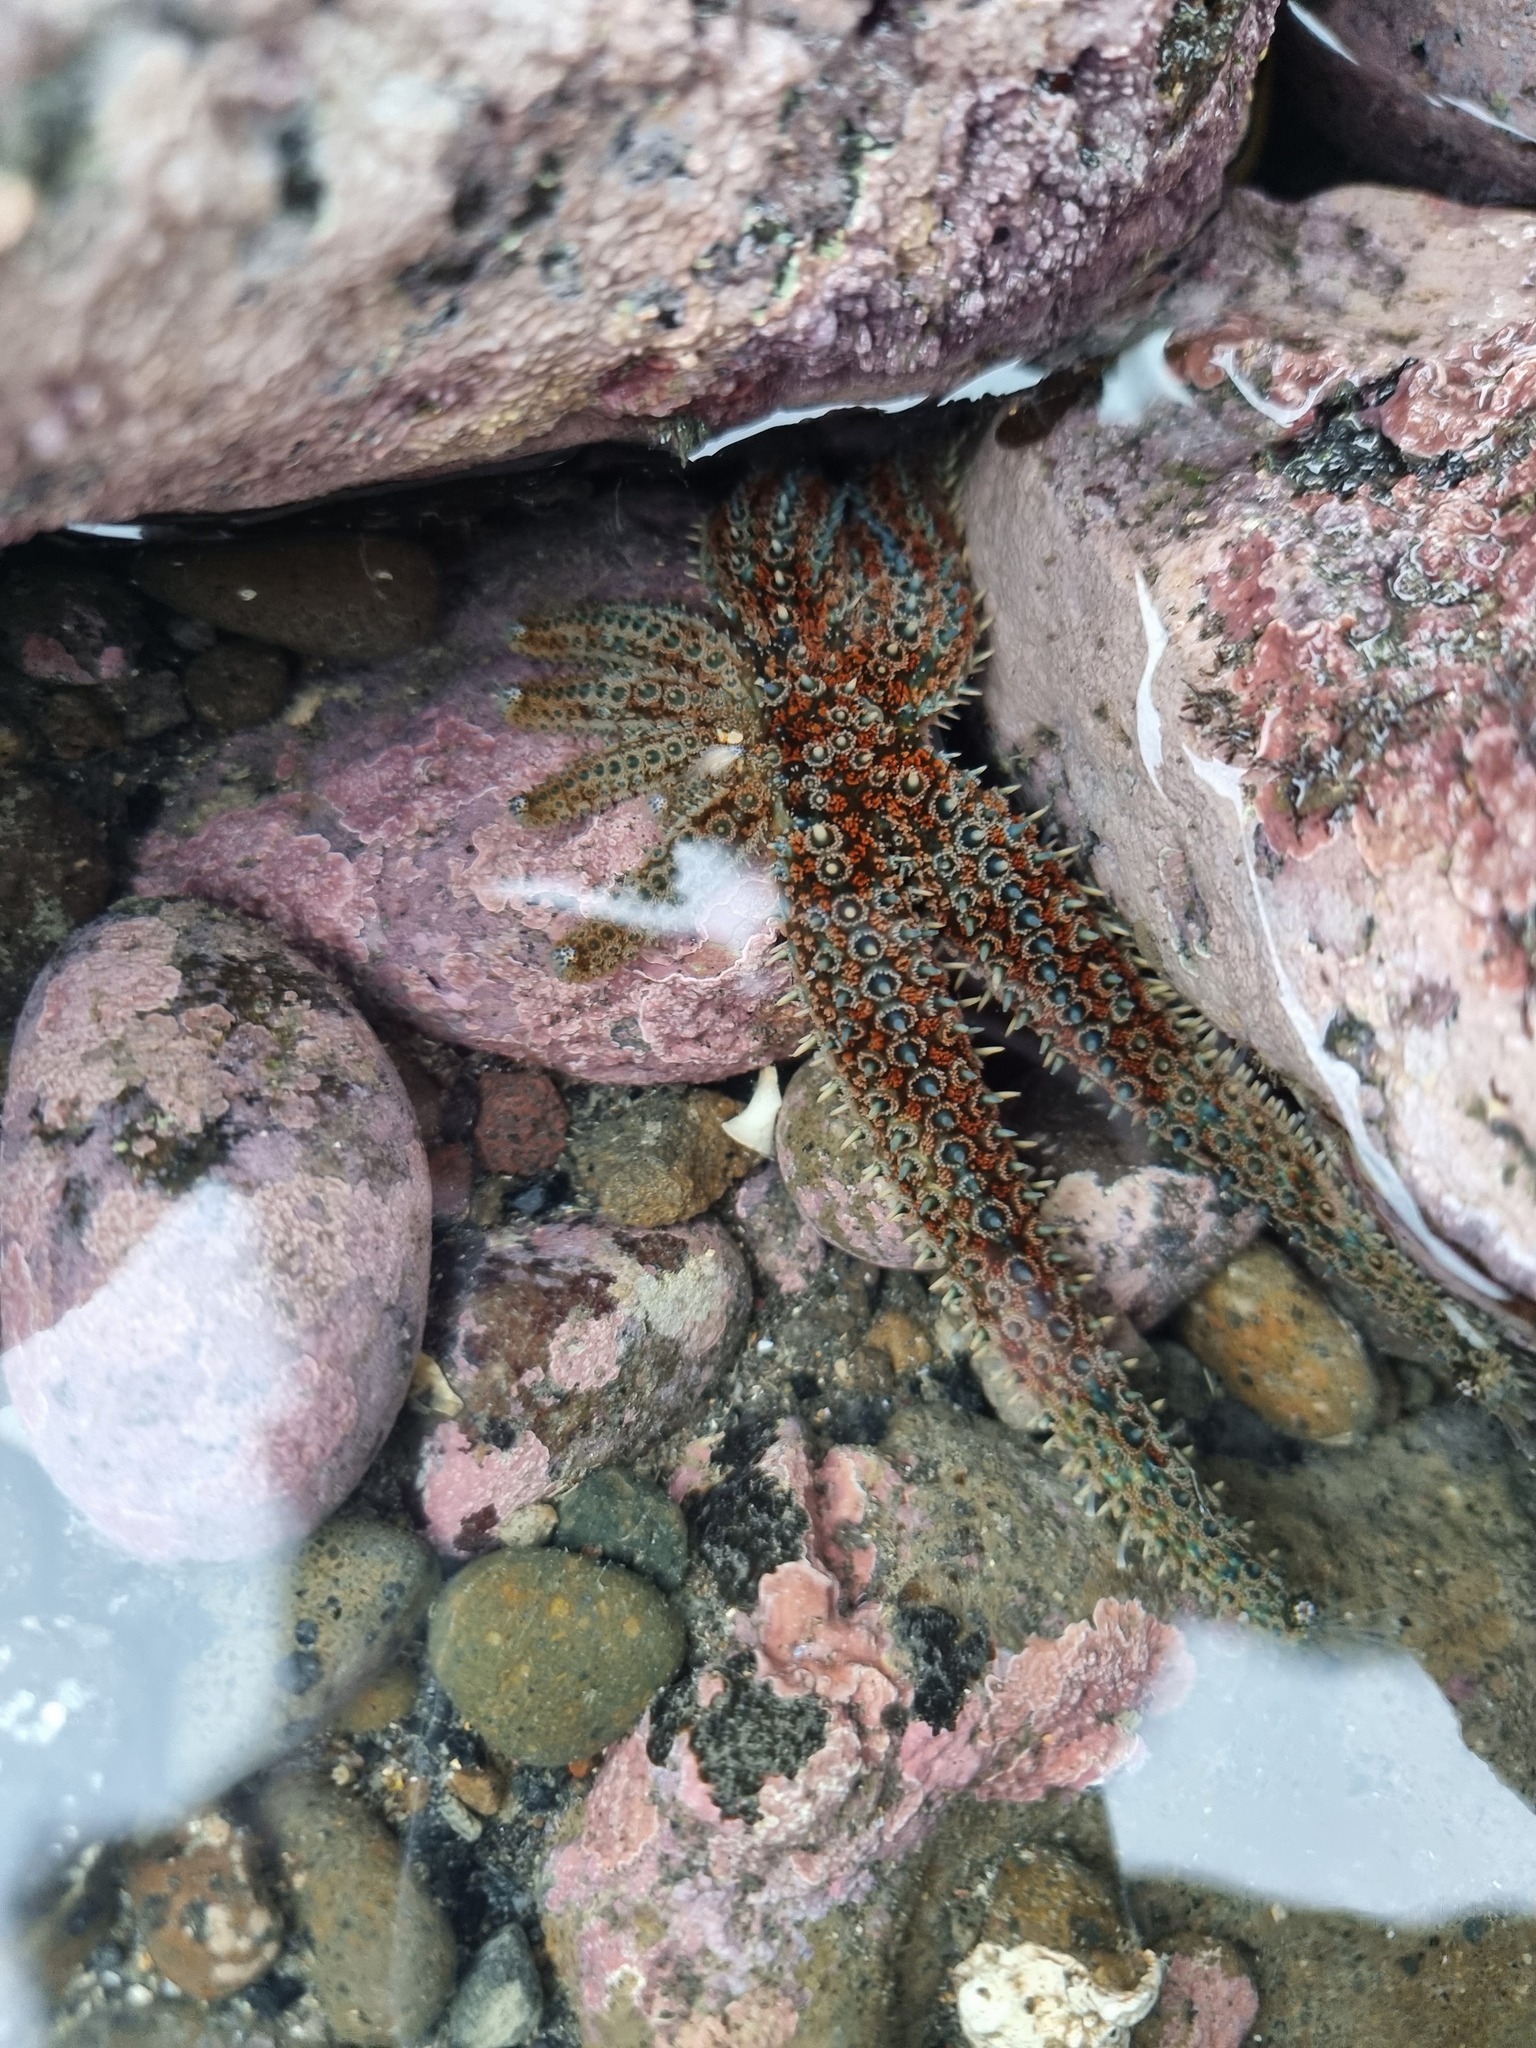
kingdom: Animalia
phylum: Echinodermata
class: Asteroidea
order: Forcipulatida
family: Asteriidae
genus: Coscinasterias
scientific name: Coscinasterias muricata
